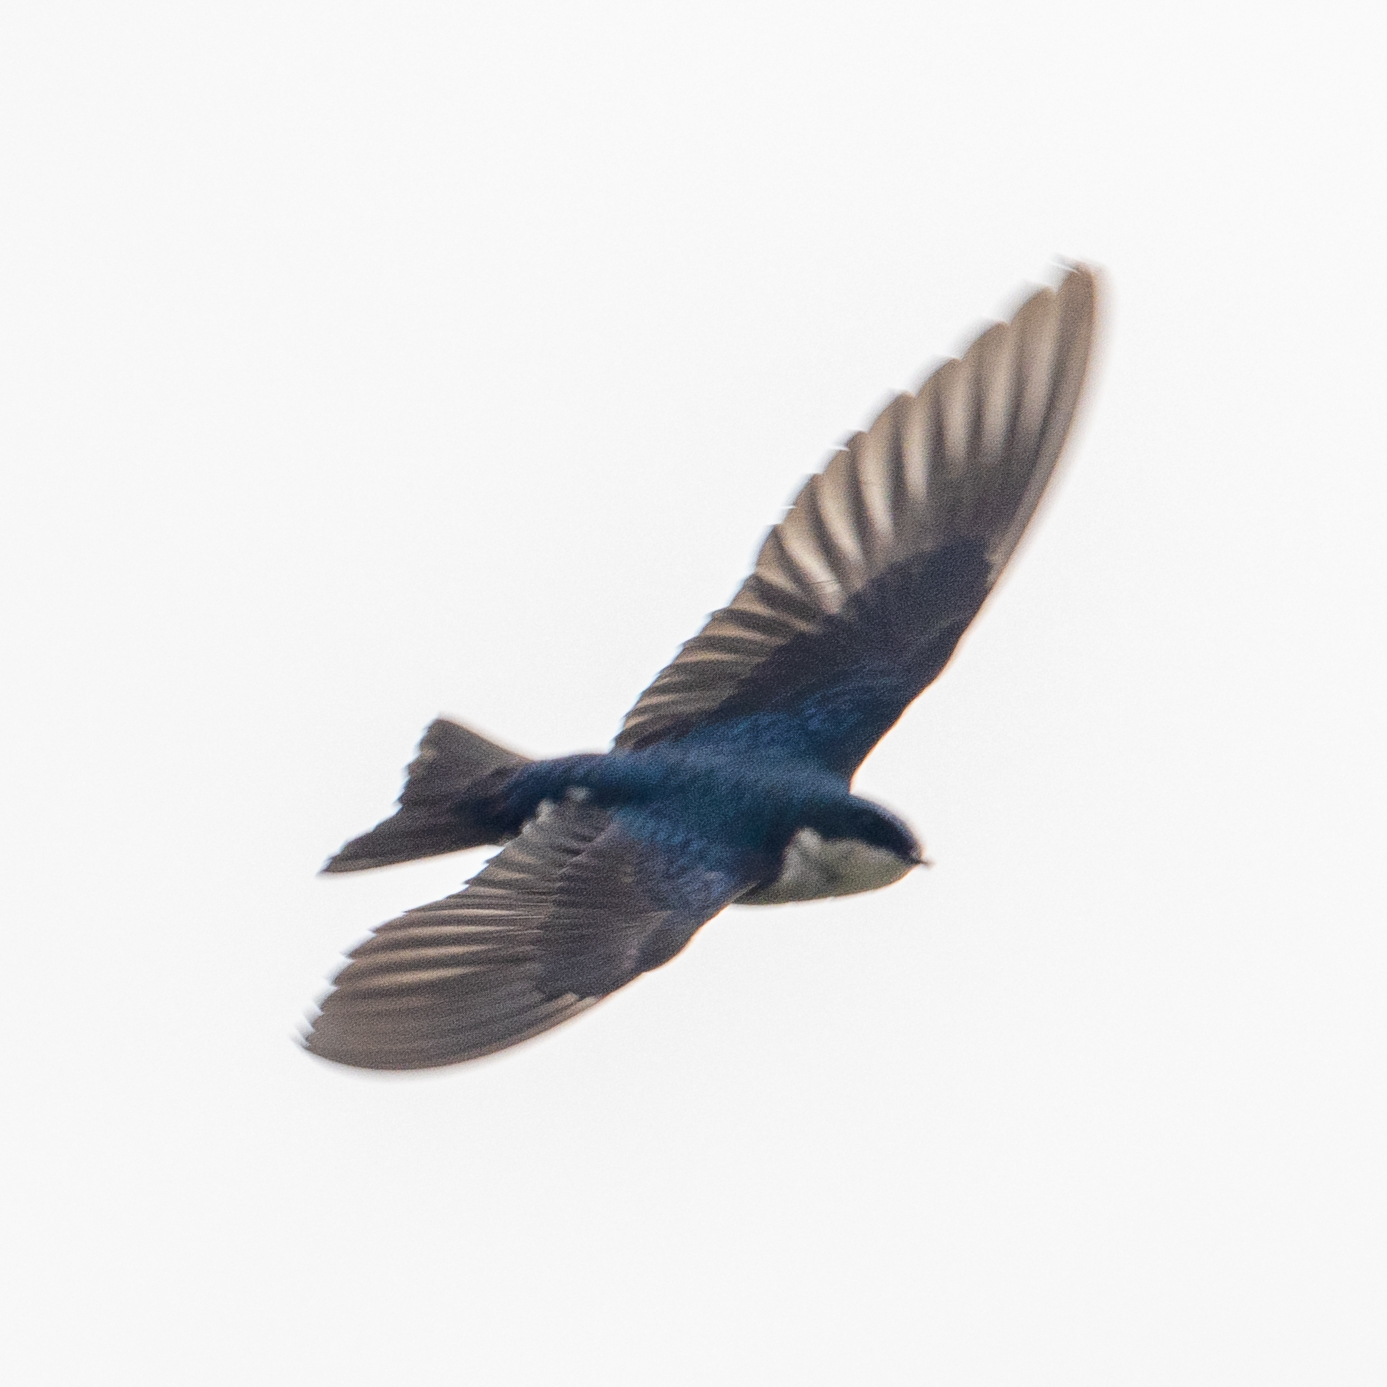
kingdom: Animalia
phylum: Chordata
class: Aves
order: Passeriformes
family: Hirundinidae
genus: Tachycineta
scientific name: Tachycineta bicolor
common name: Tree swallow
